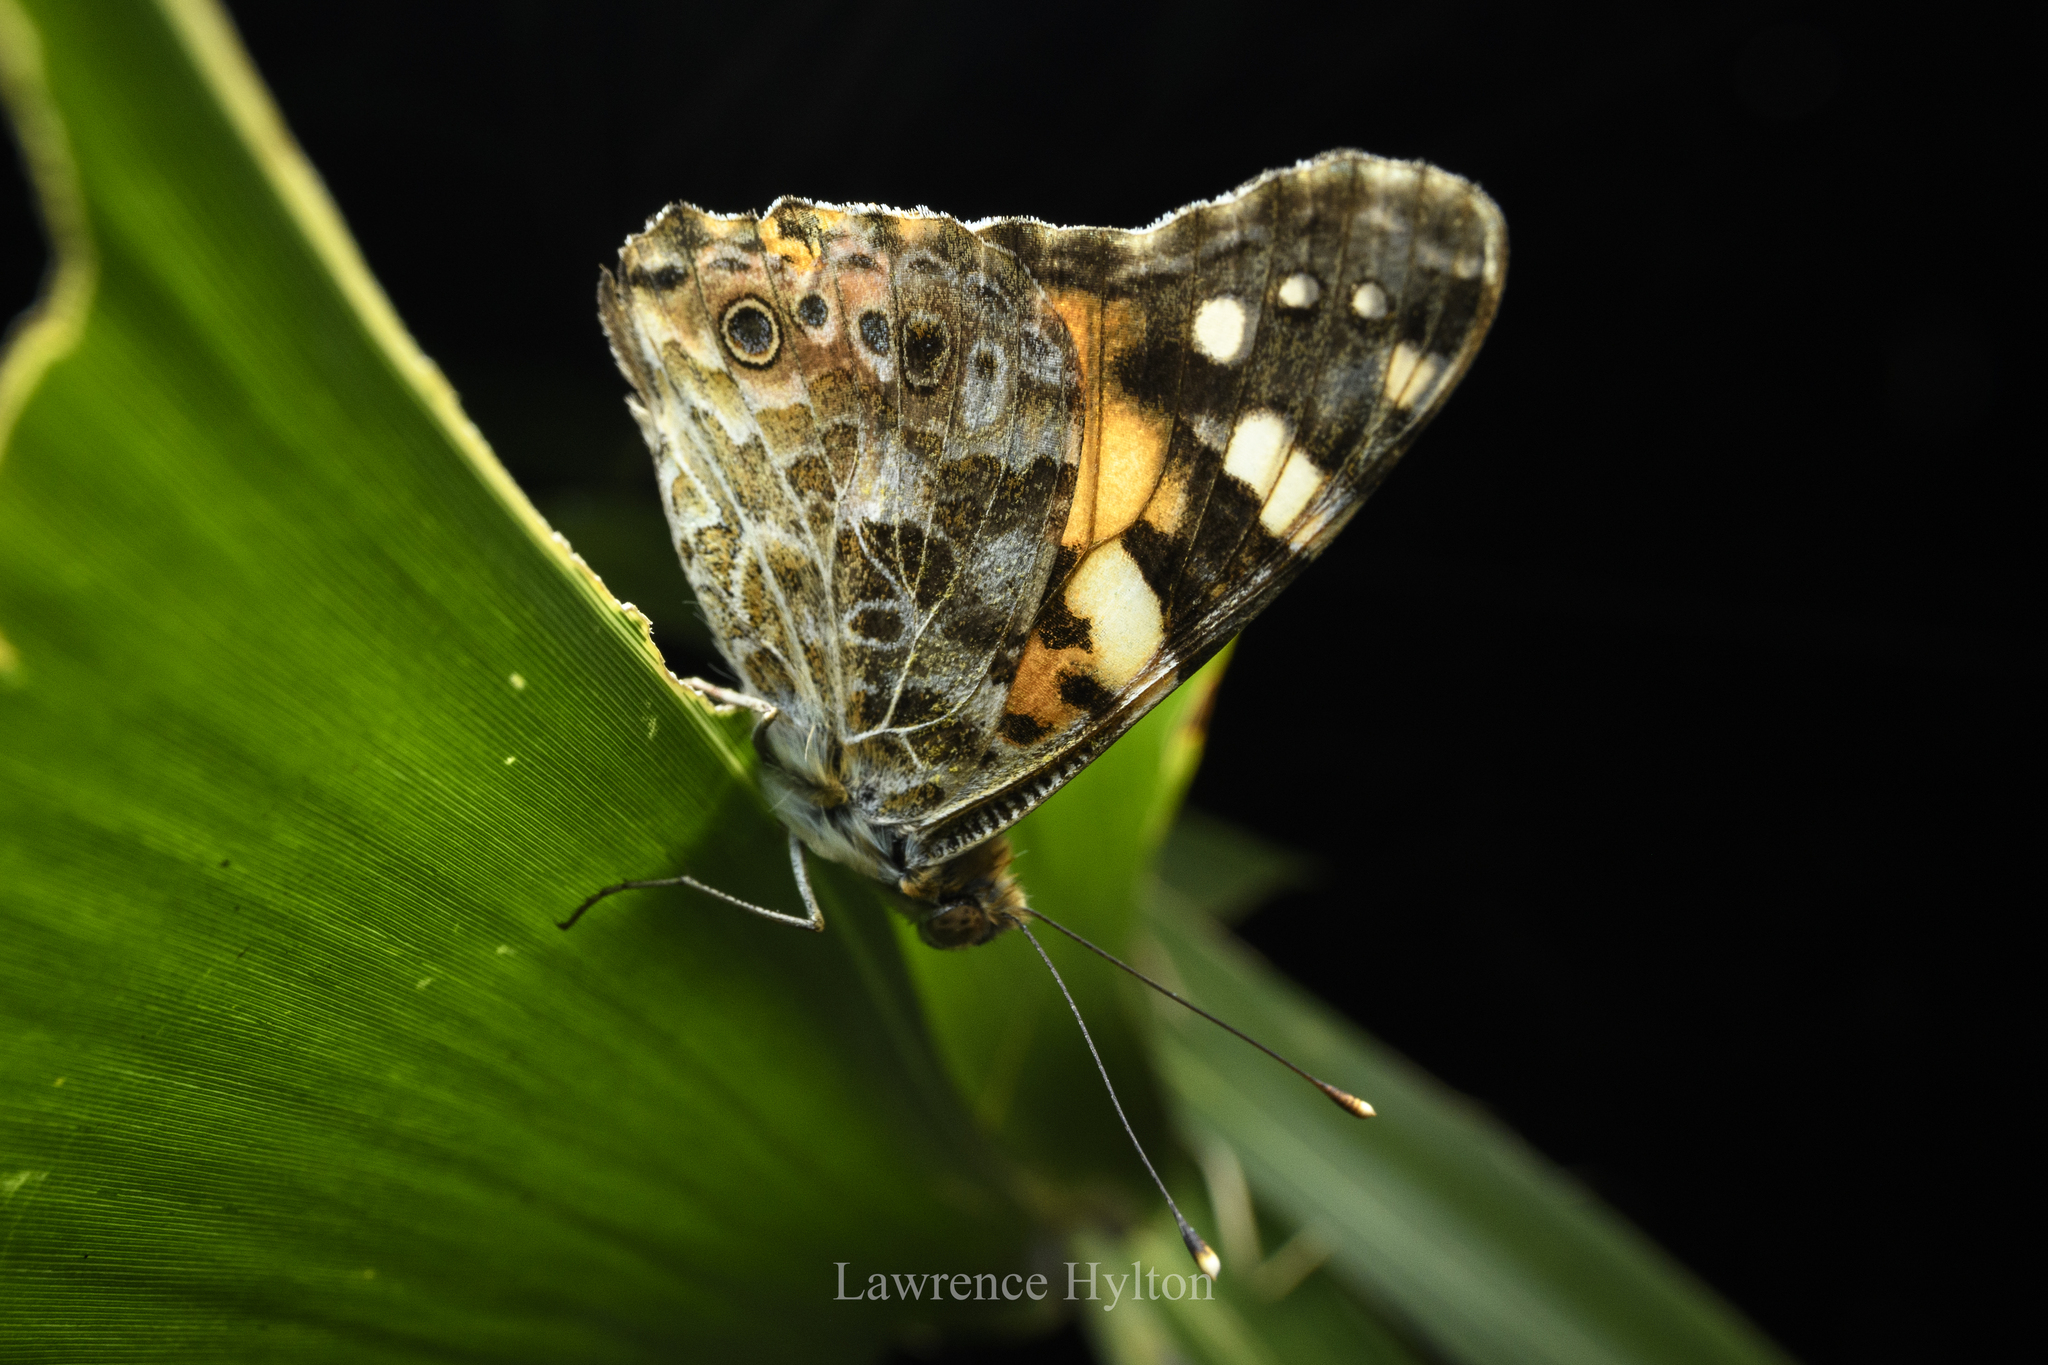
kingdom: Animalia
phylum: Arthropoda
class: Insecta
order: Lepidoptera
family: Nymphalidae
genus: Vanessa
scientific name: Vanessa cardui
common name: Painted lady
